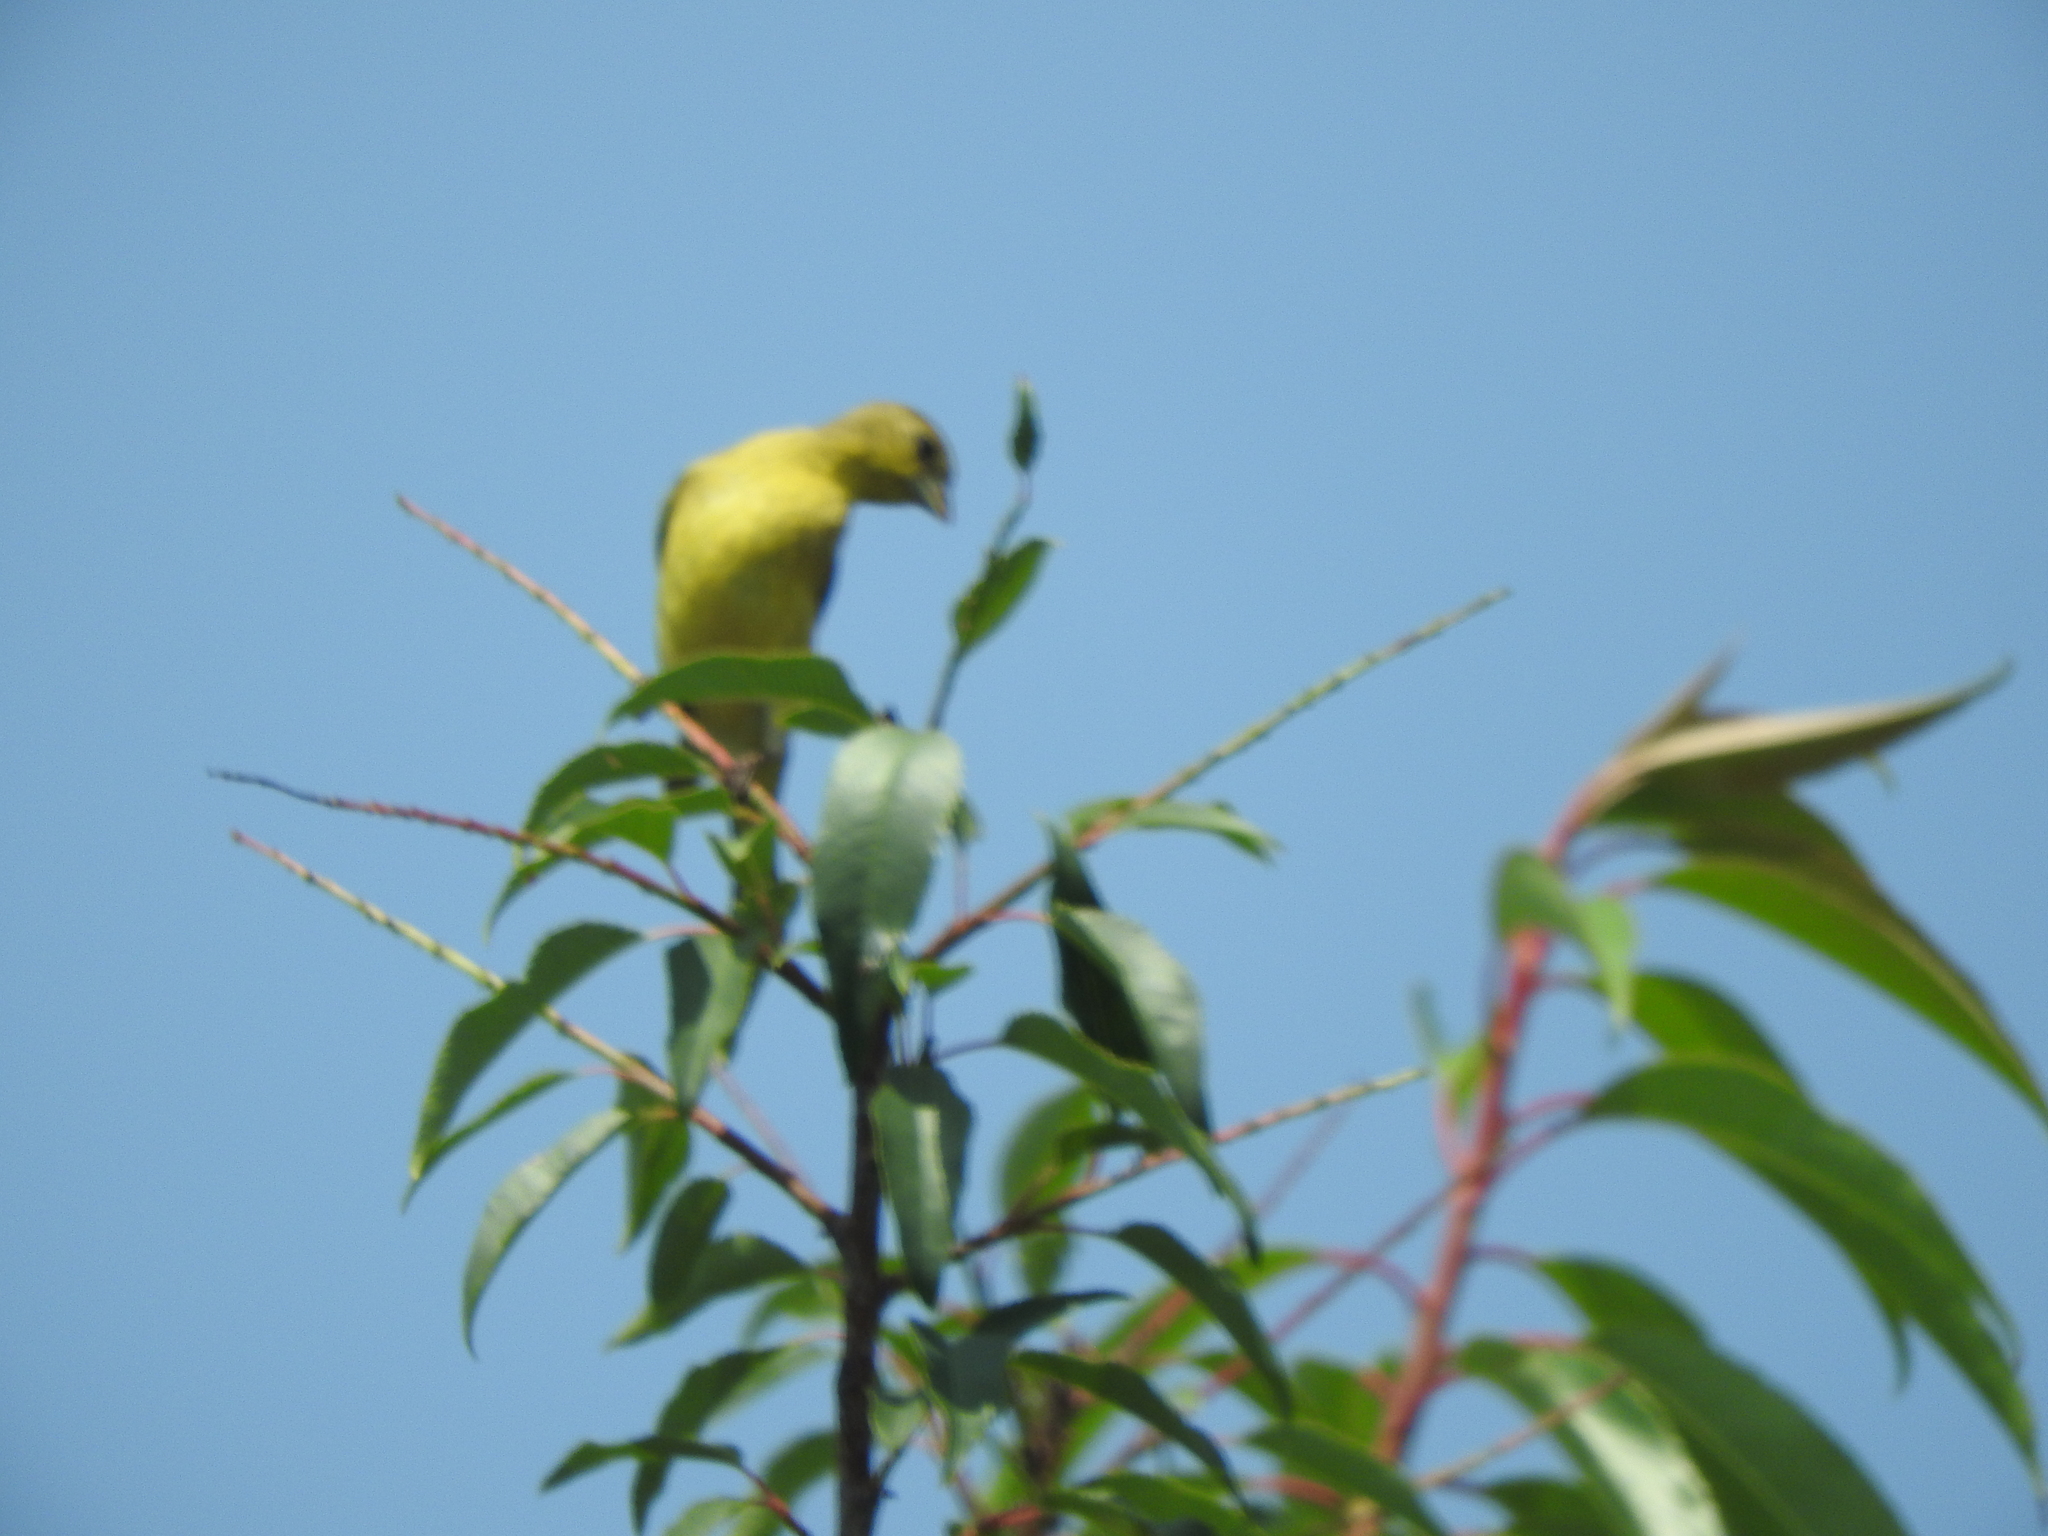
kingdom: Animalia
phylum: Chordata
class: Aves
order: Passeriformes
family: Fringillidae
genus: Spinus
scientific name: Spinus psaltria
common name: Lesser goldfinch
